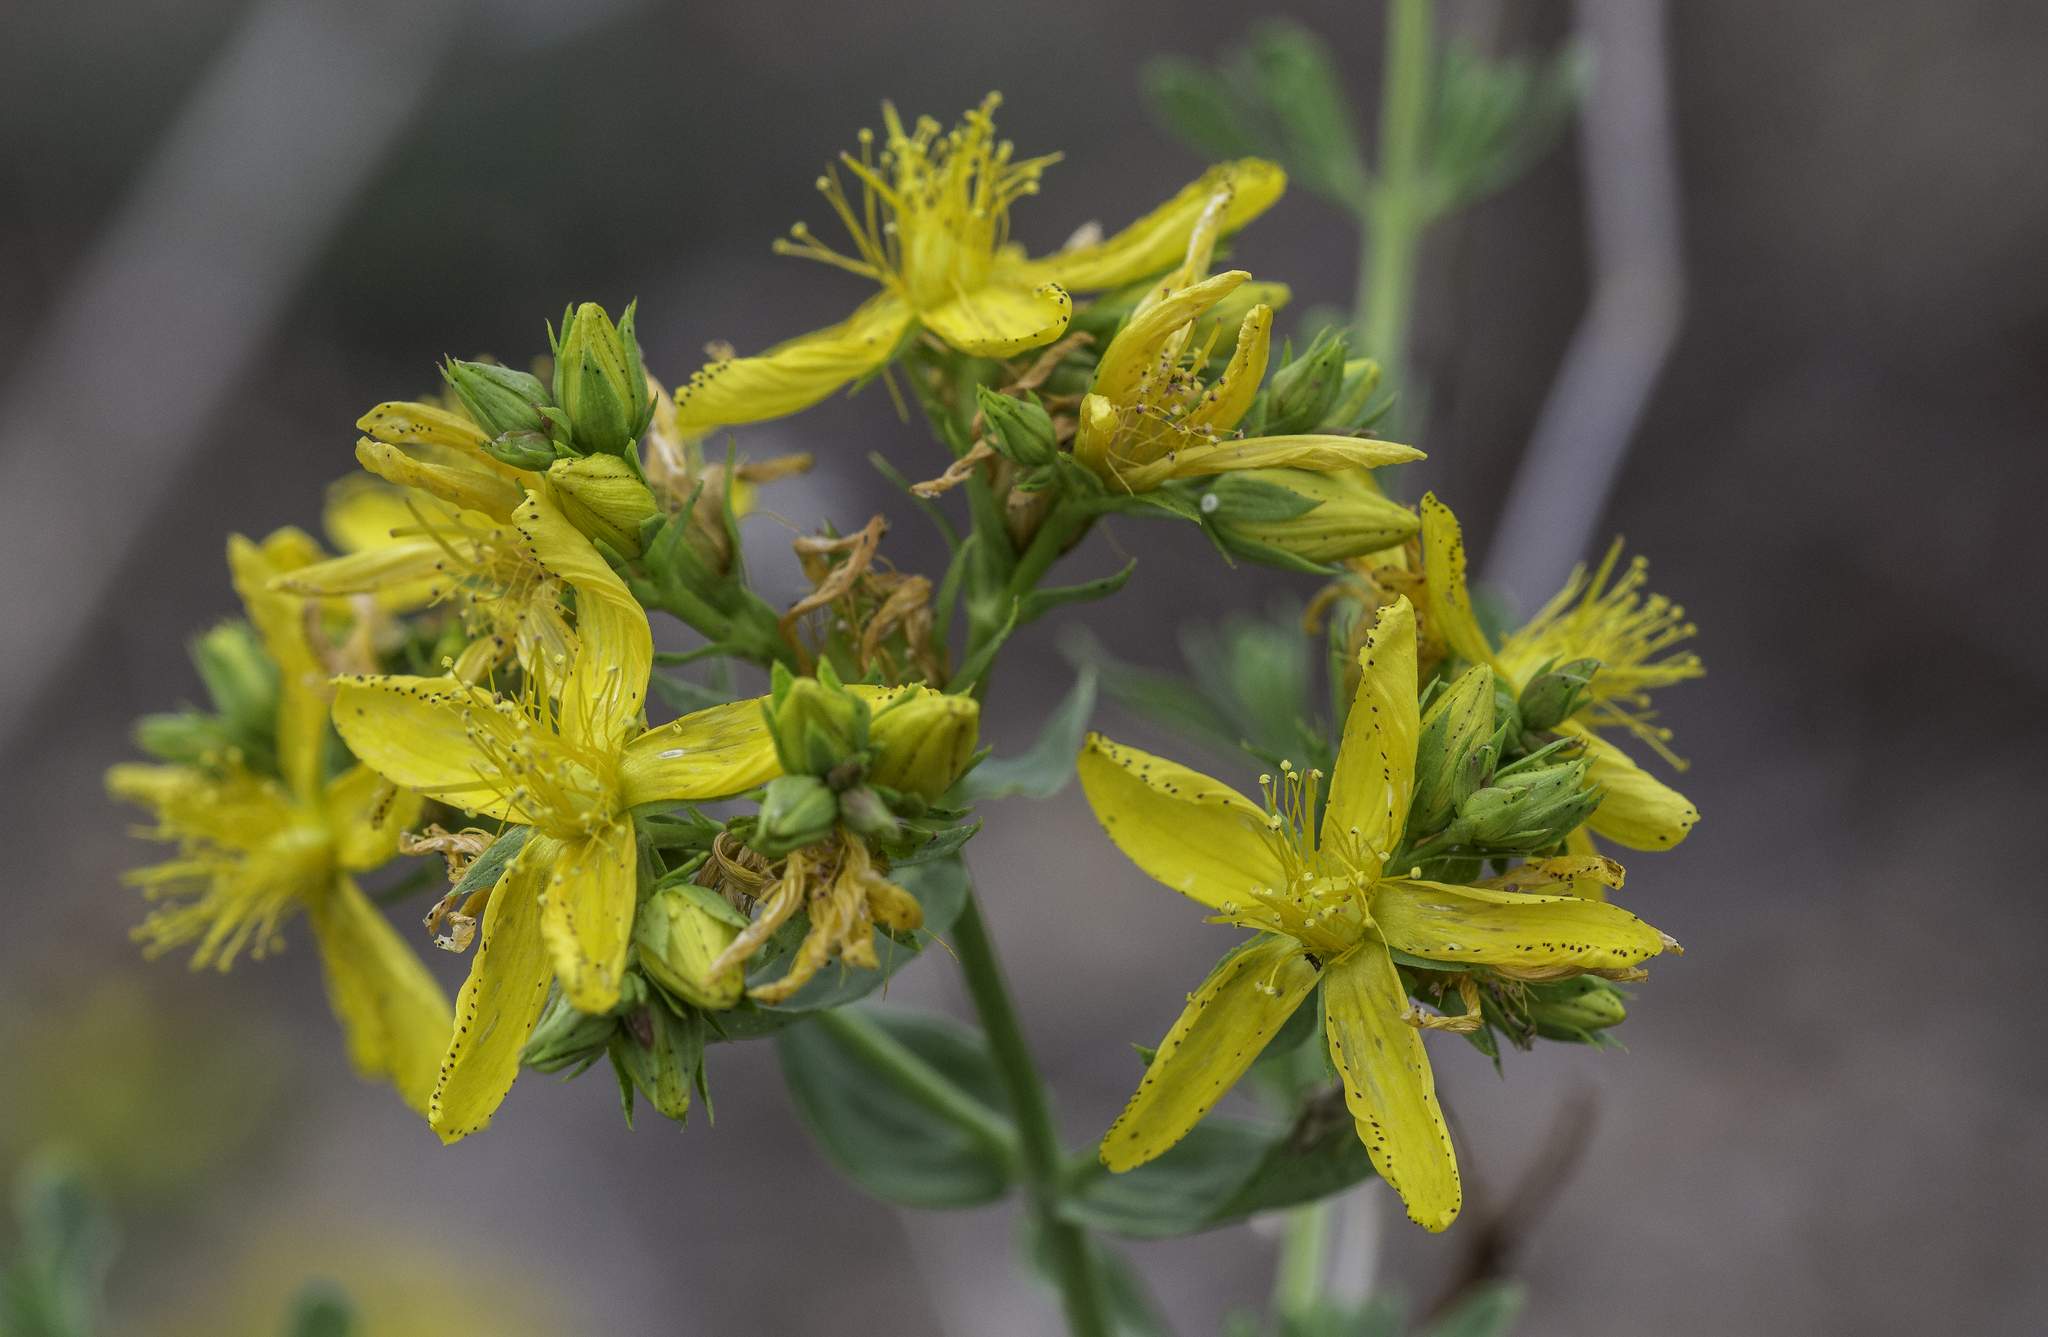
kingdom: Plantae
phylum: Tracheophyta
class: Magnoliopsida
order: Malpighiales
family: Hypericaceae
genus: Hypericum
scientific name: Hypericum perforatum
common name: Common st. johnswort
